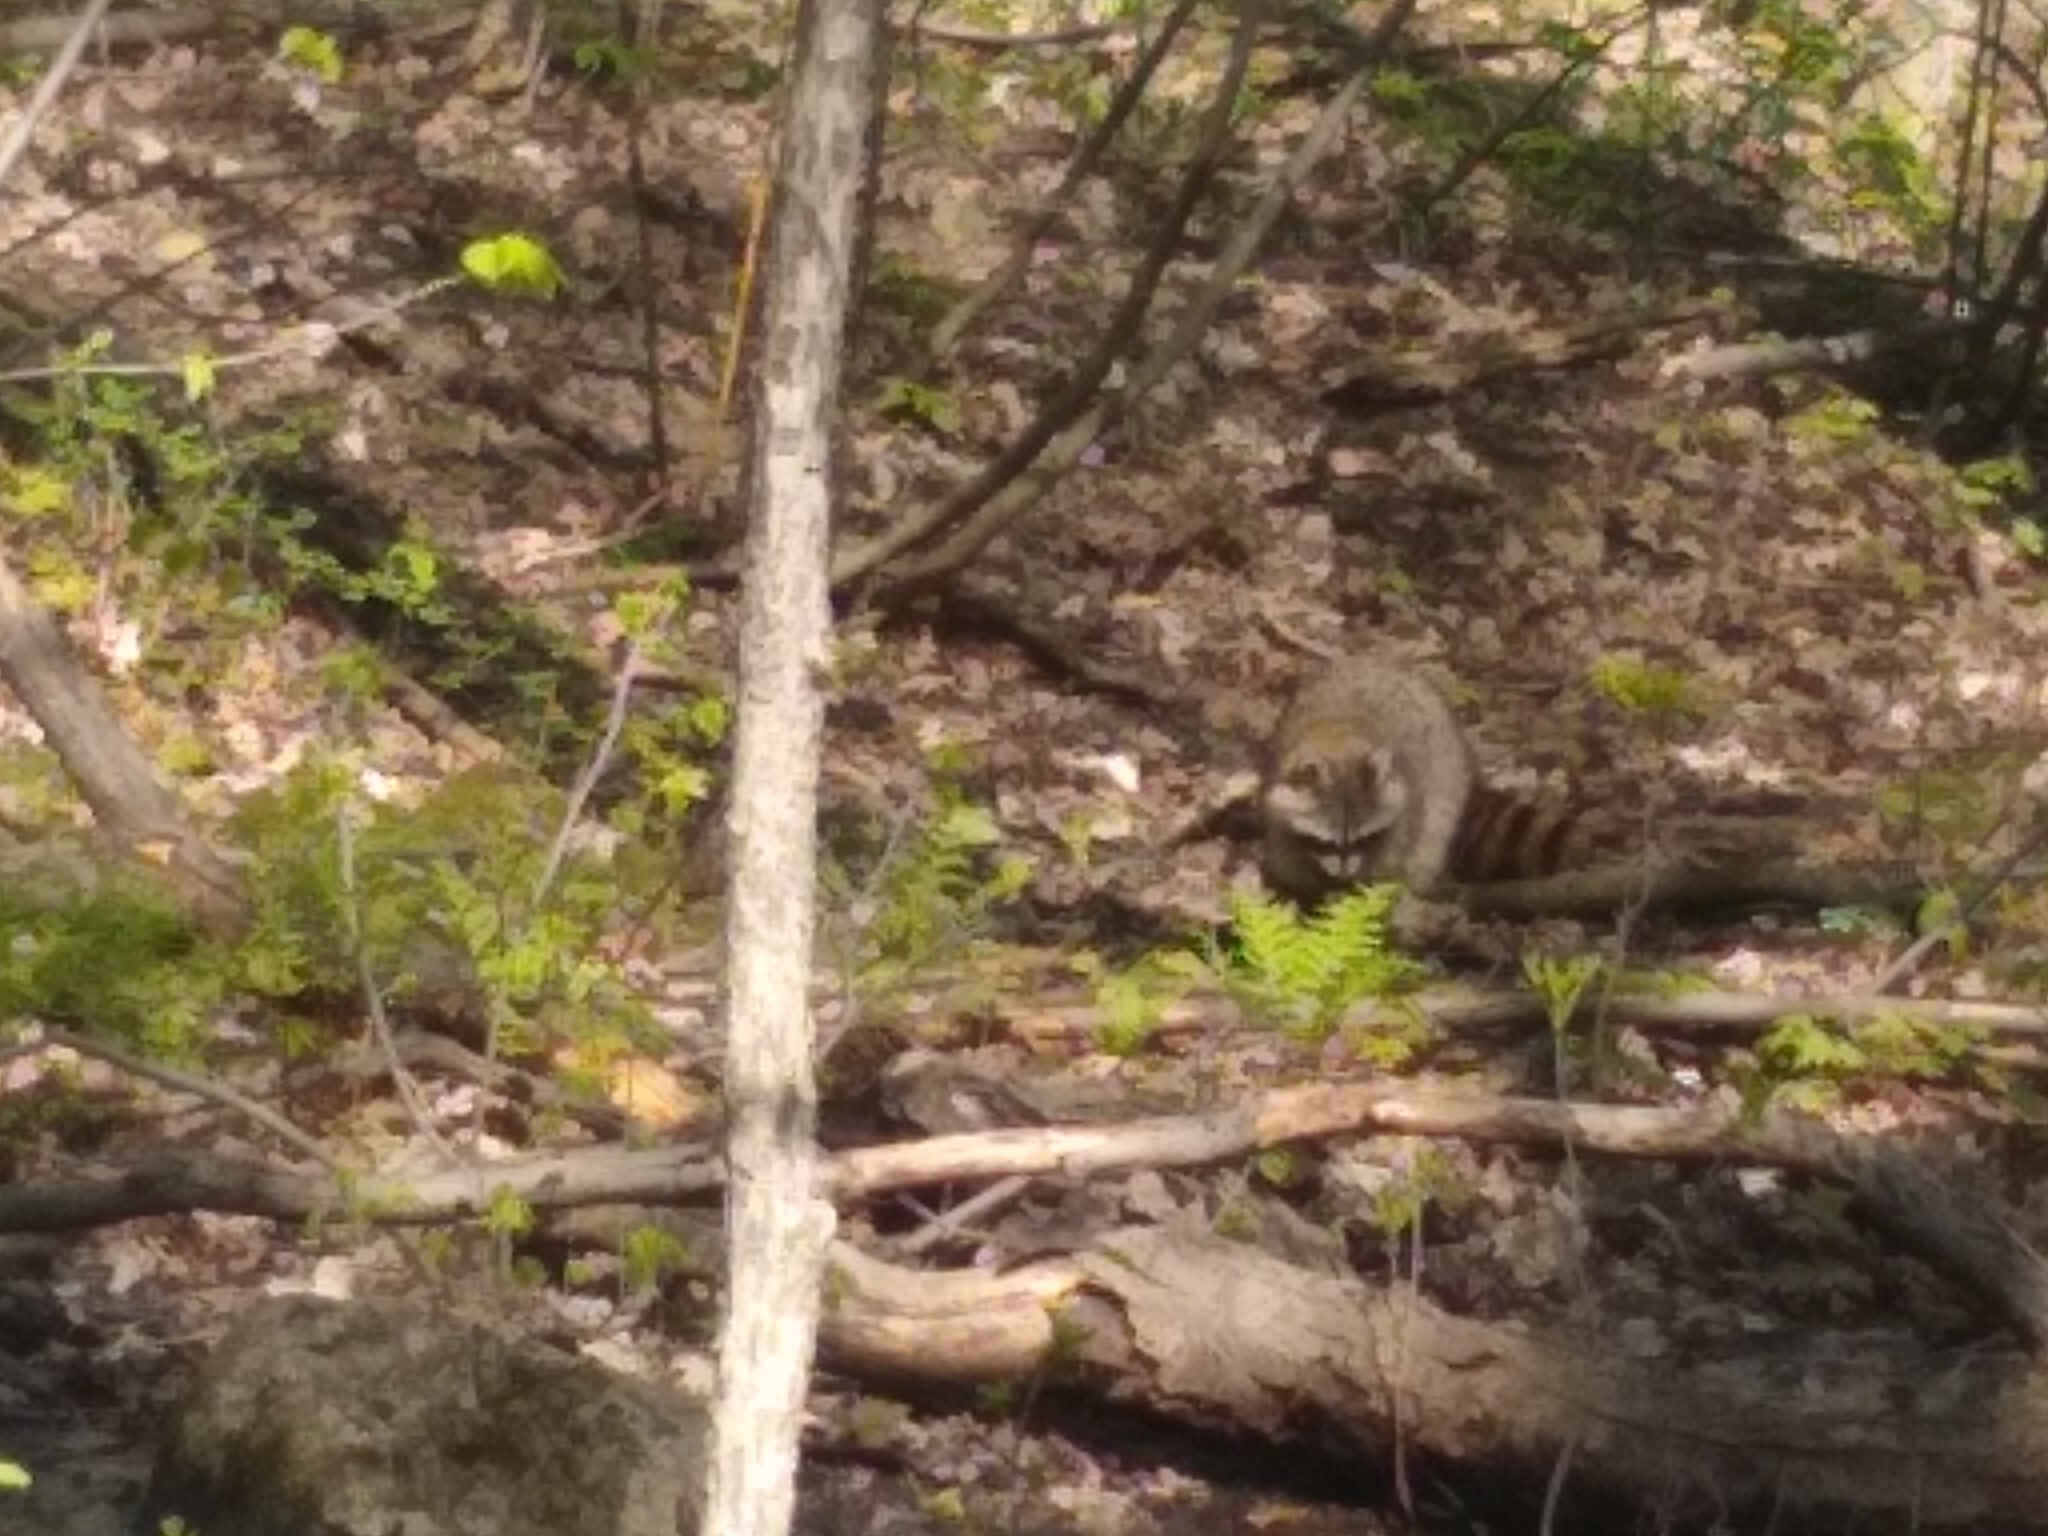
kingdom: Animalia
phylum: Chordata
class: Mammalia
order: Carnivora
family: Procyonidae
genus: Procyon
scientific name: Procyon lotor
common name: Raccoon
